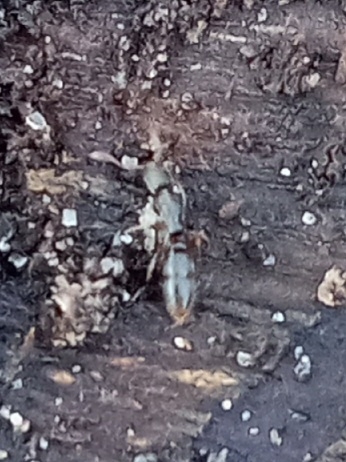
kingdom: Animalia
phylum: Arthropoda
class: Insecta
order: Hymenoptera
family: Formicidae
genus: Ponera
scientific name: Ponera pennsylvanica
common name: Pennsylvania ponera
